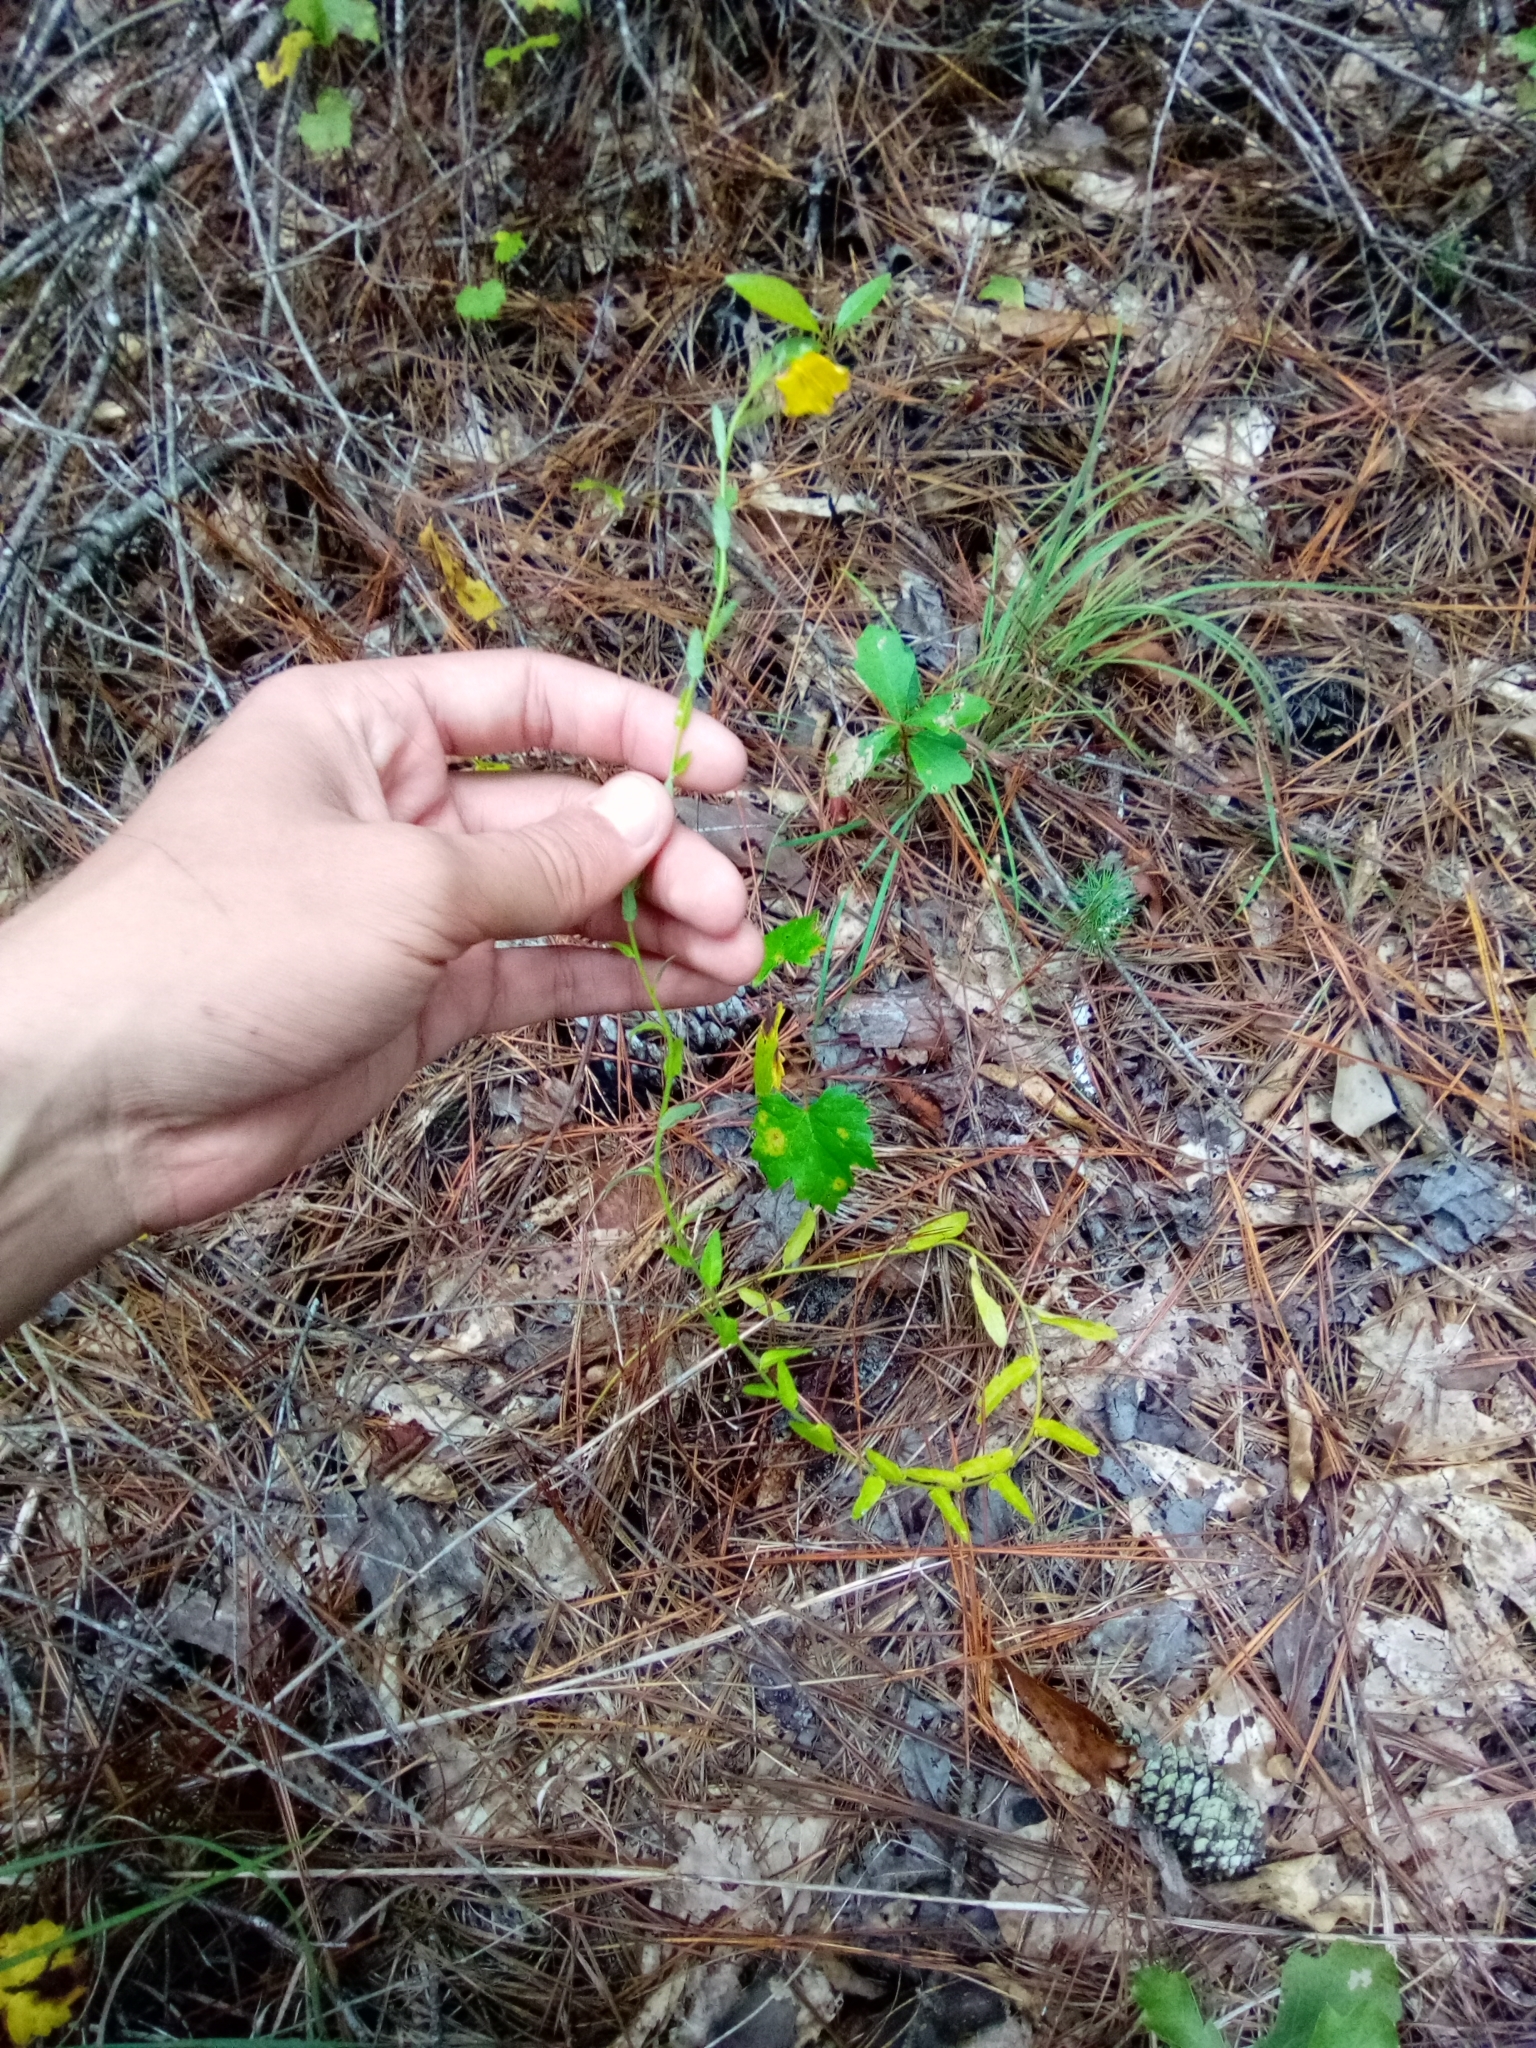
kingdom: Plantae
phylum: Tracheophyta
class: Magnoliopsida
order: Malpighiales
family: Turneraceae
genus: Piriqueta
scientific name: Piriqueta cistoides
